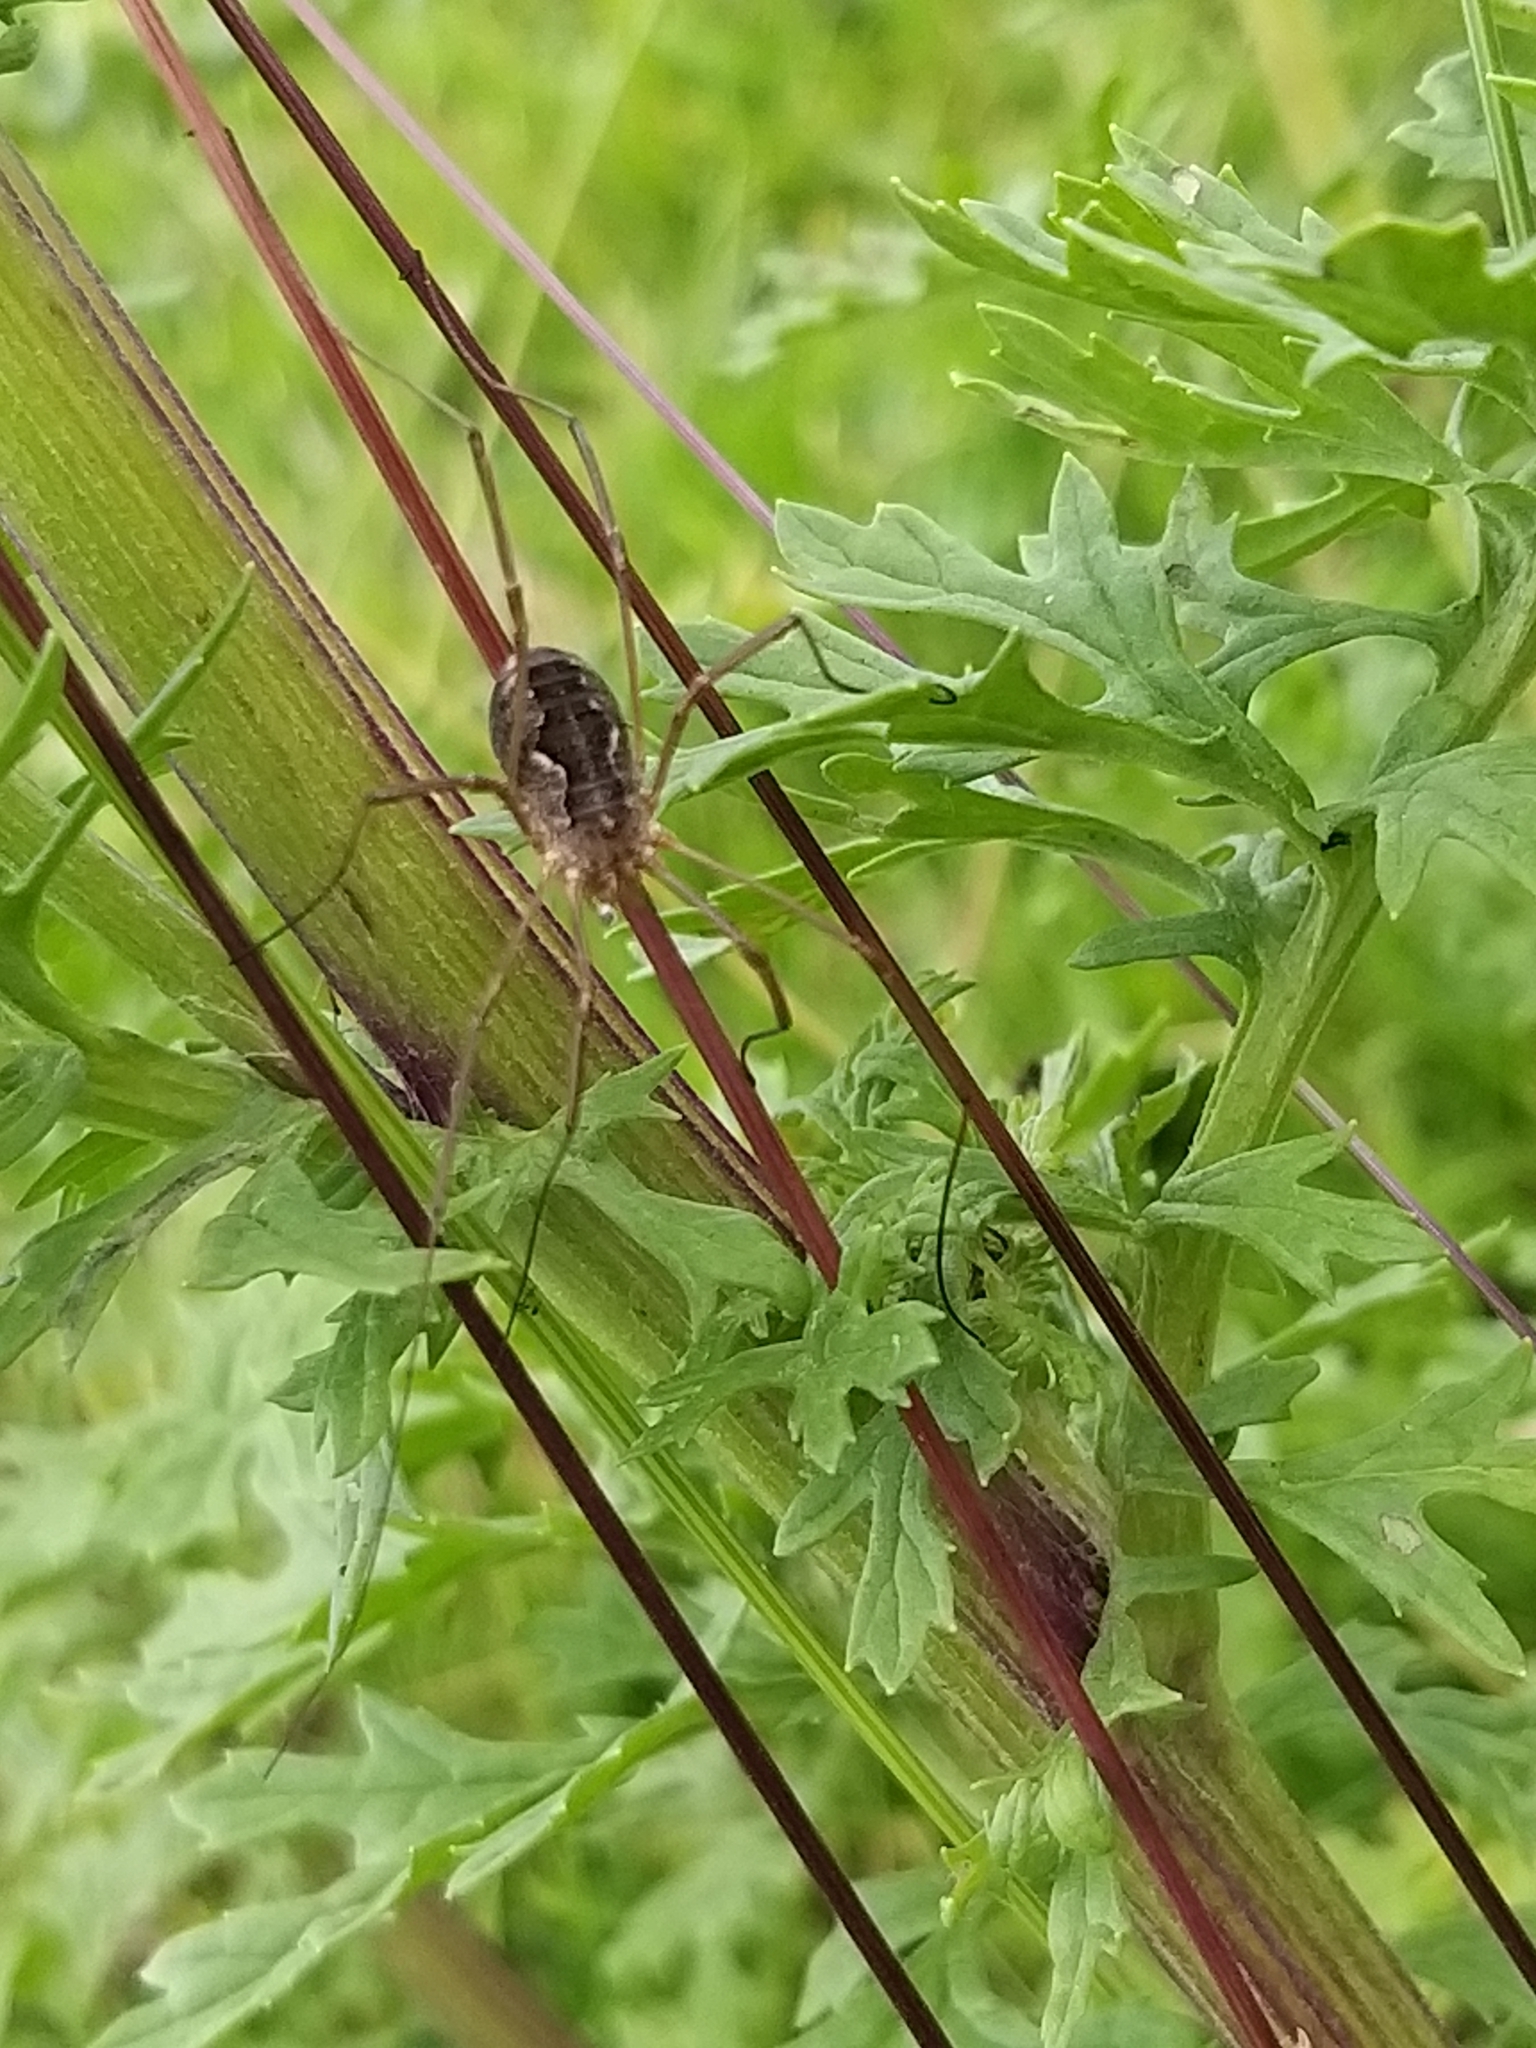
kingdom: Animalia
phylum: Arthropoda
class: Arachnida
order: Opiliones
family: Phalangiidae
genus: Phalangium
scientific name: Phalangium opilio
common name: Daddy longleg
